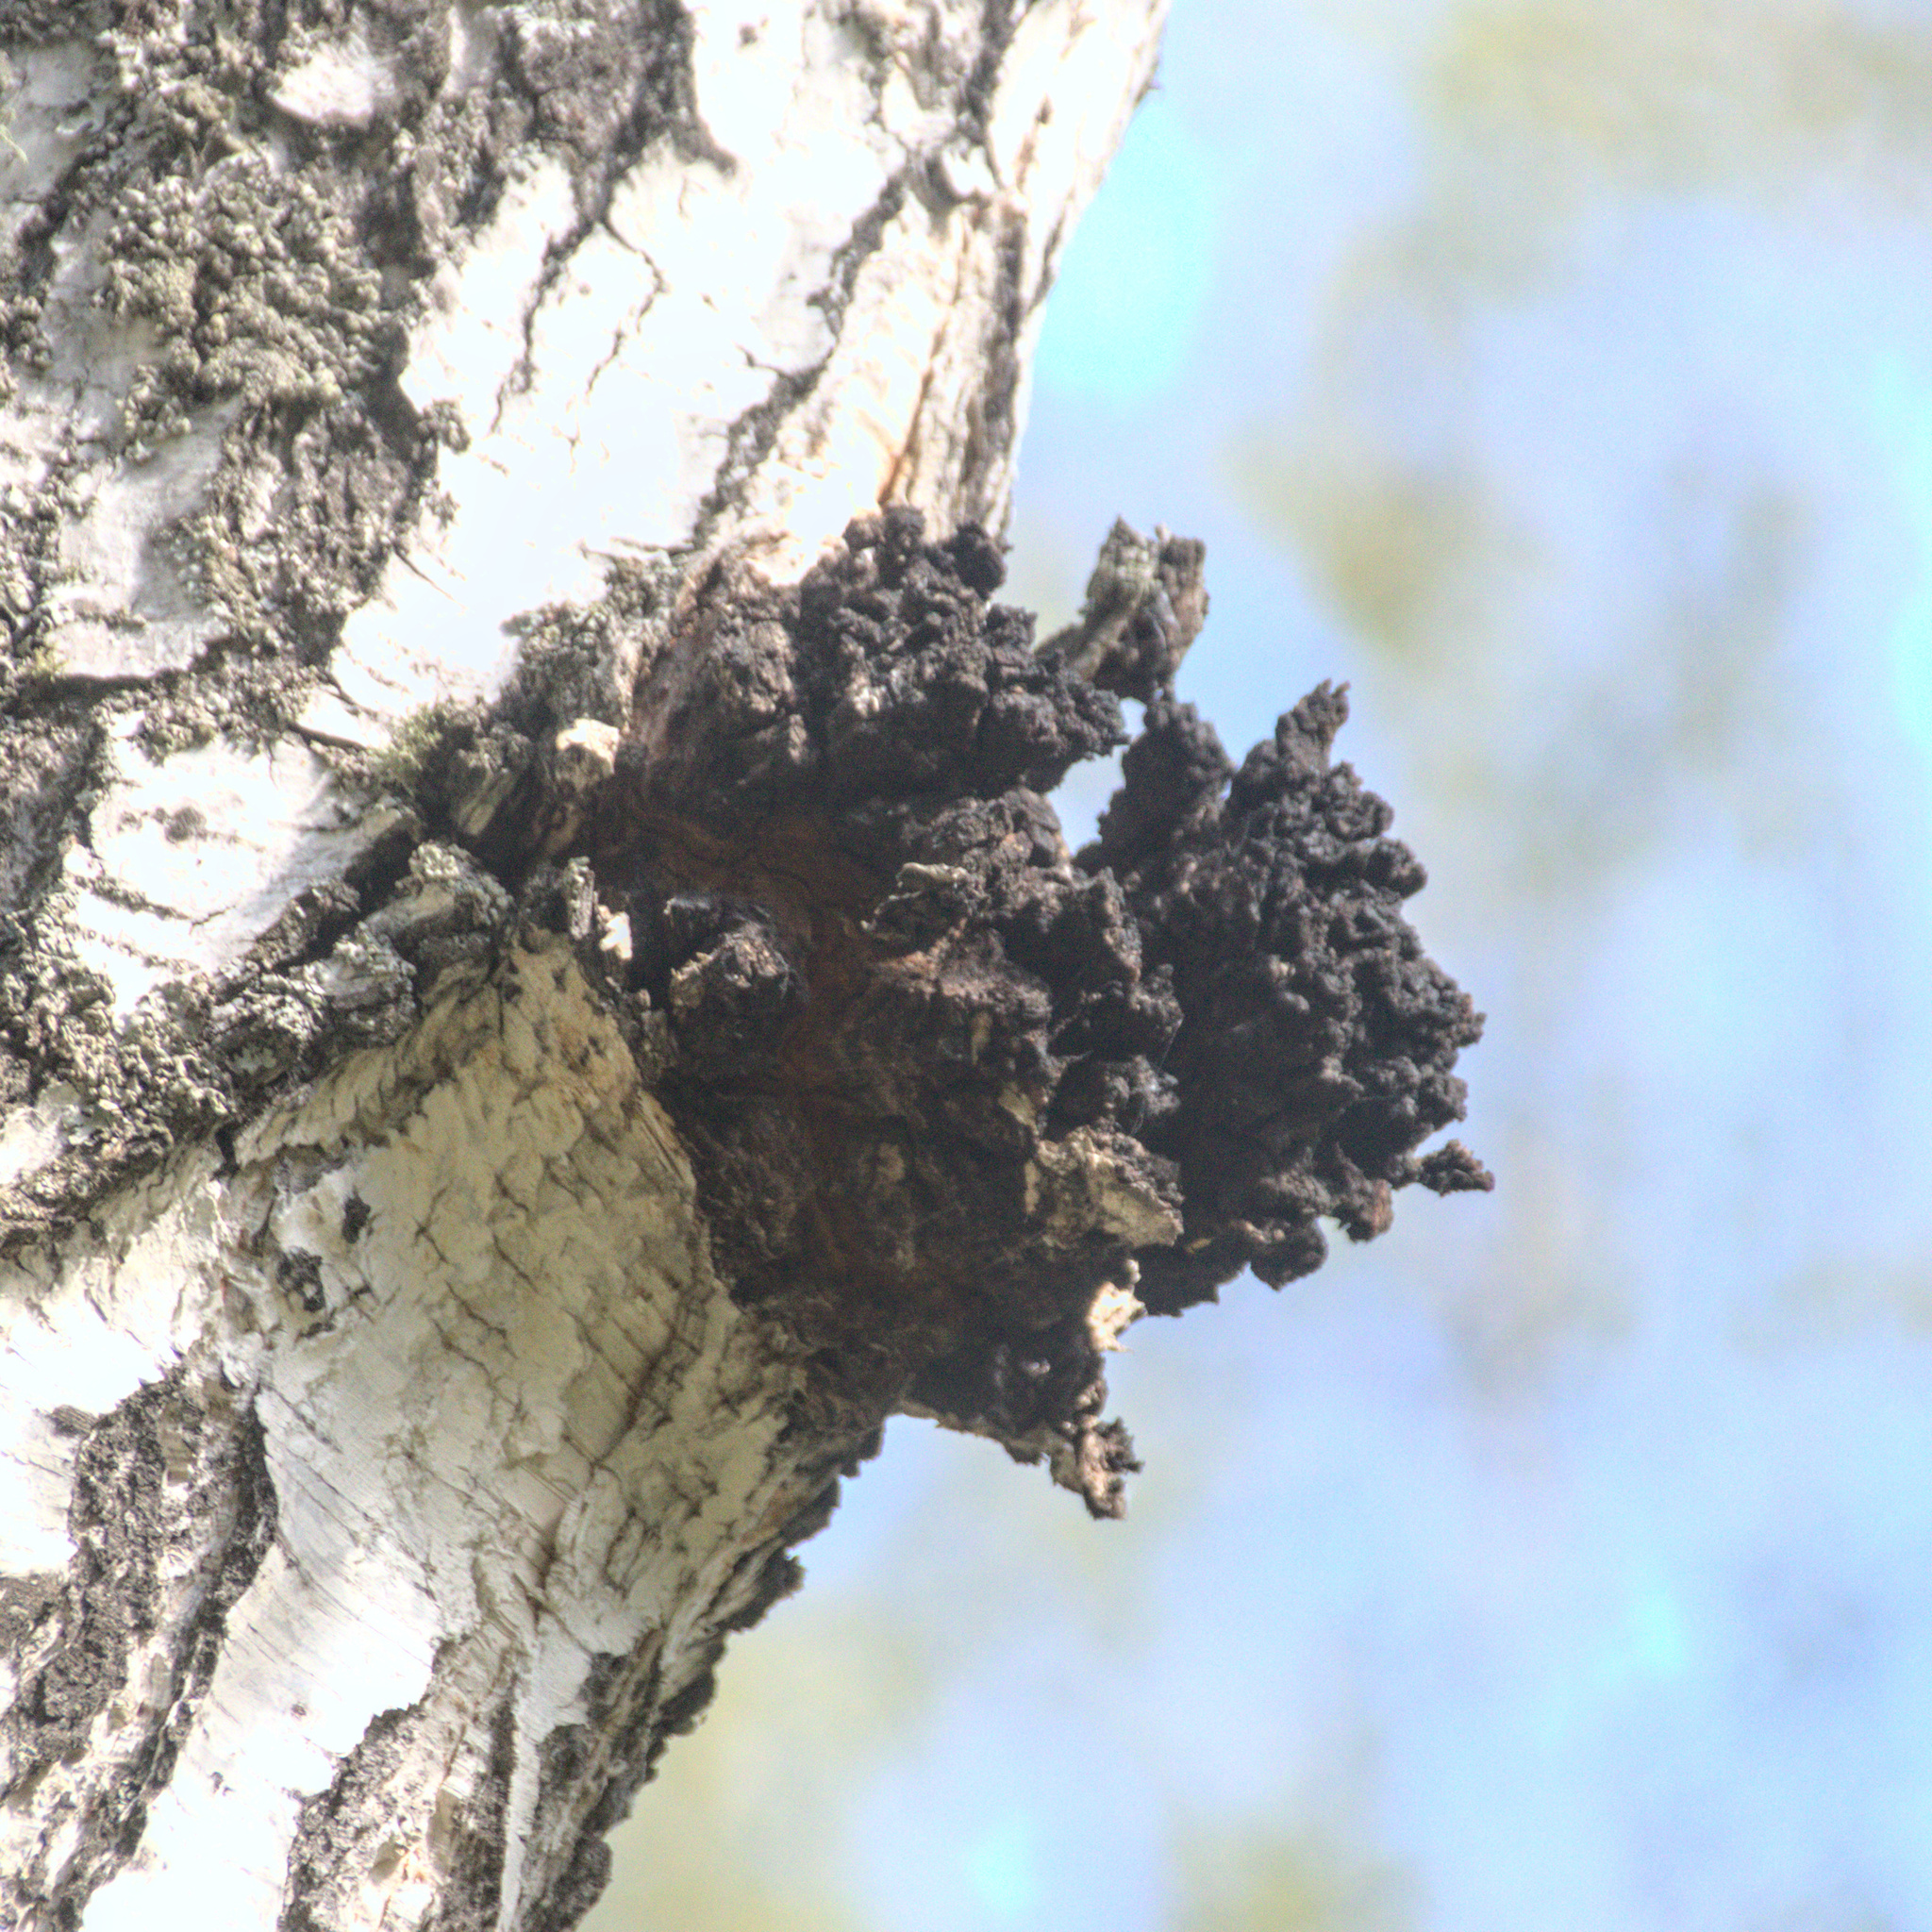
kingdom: Fungi
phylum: Basidiomycota
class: Agaricomycetes
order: Hymenochaetales
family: Hymenochaetaceae
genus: Inonotus
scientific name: Inonotus obliquus
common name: Chaga
